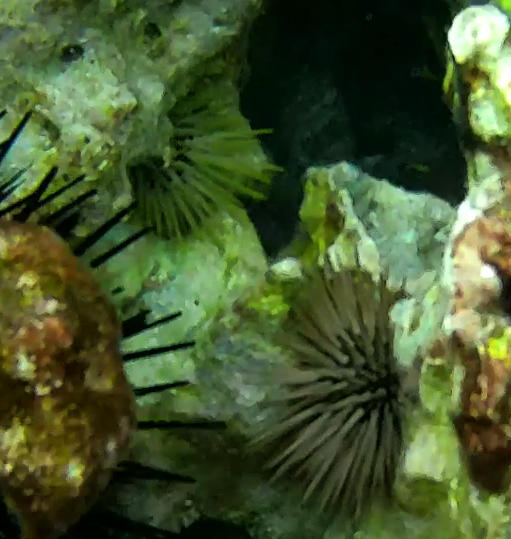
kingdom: Animalia
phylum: Echinodermata
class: Echinoidea
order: Camarodonta
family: Echinometridae
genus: Echinometra
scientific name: Echinometra mathaei
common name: Rock-boring urchin
